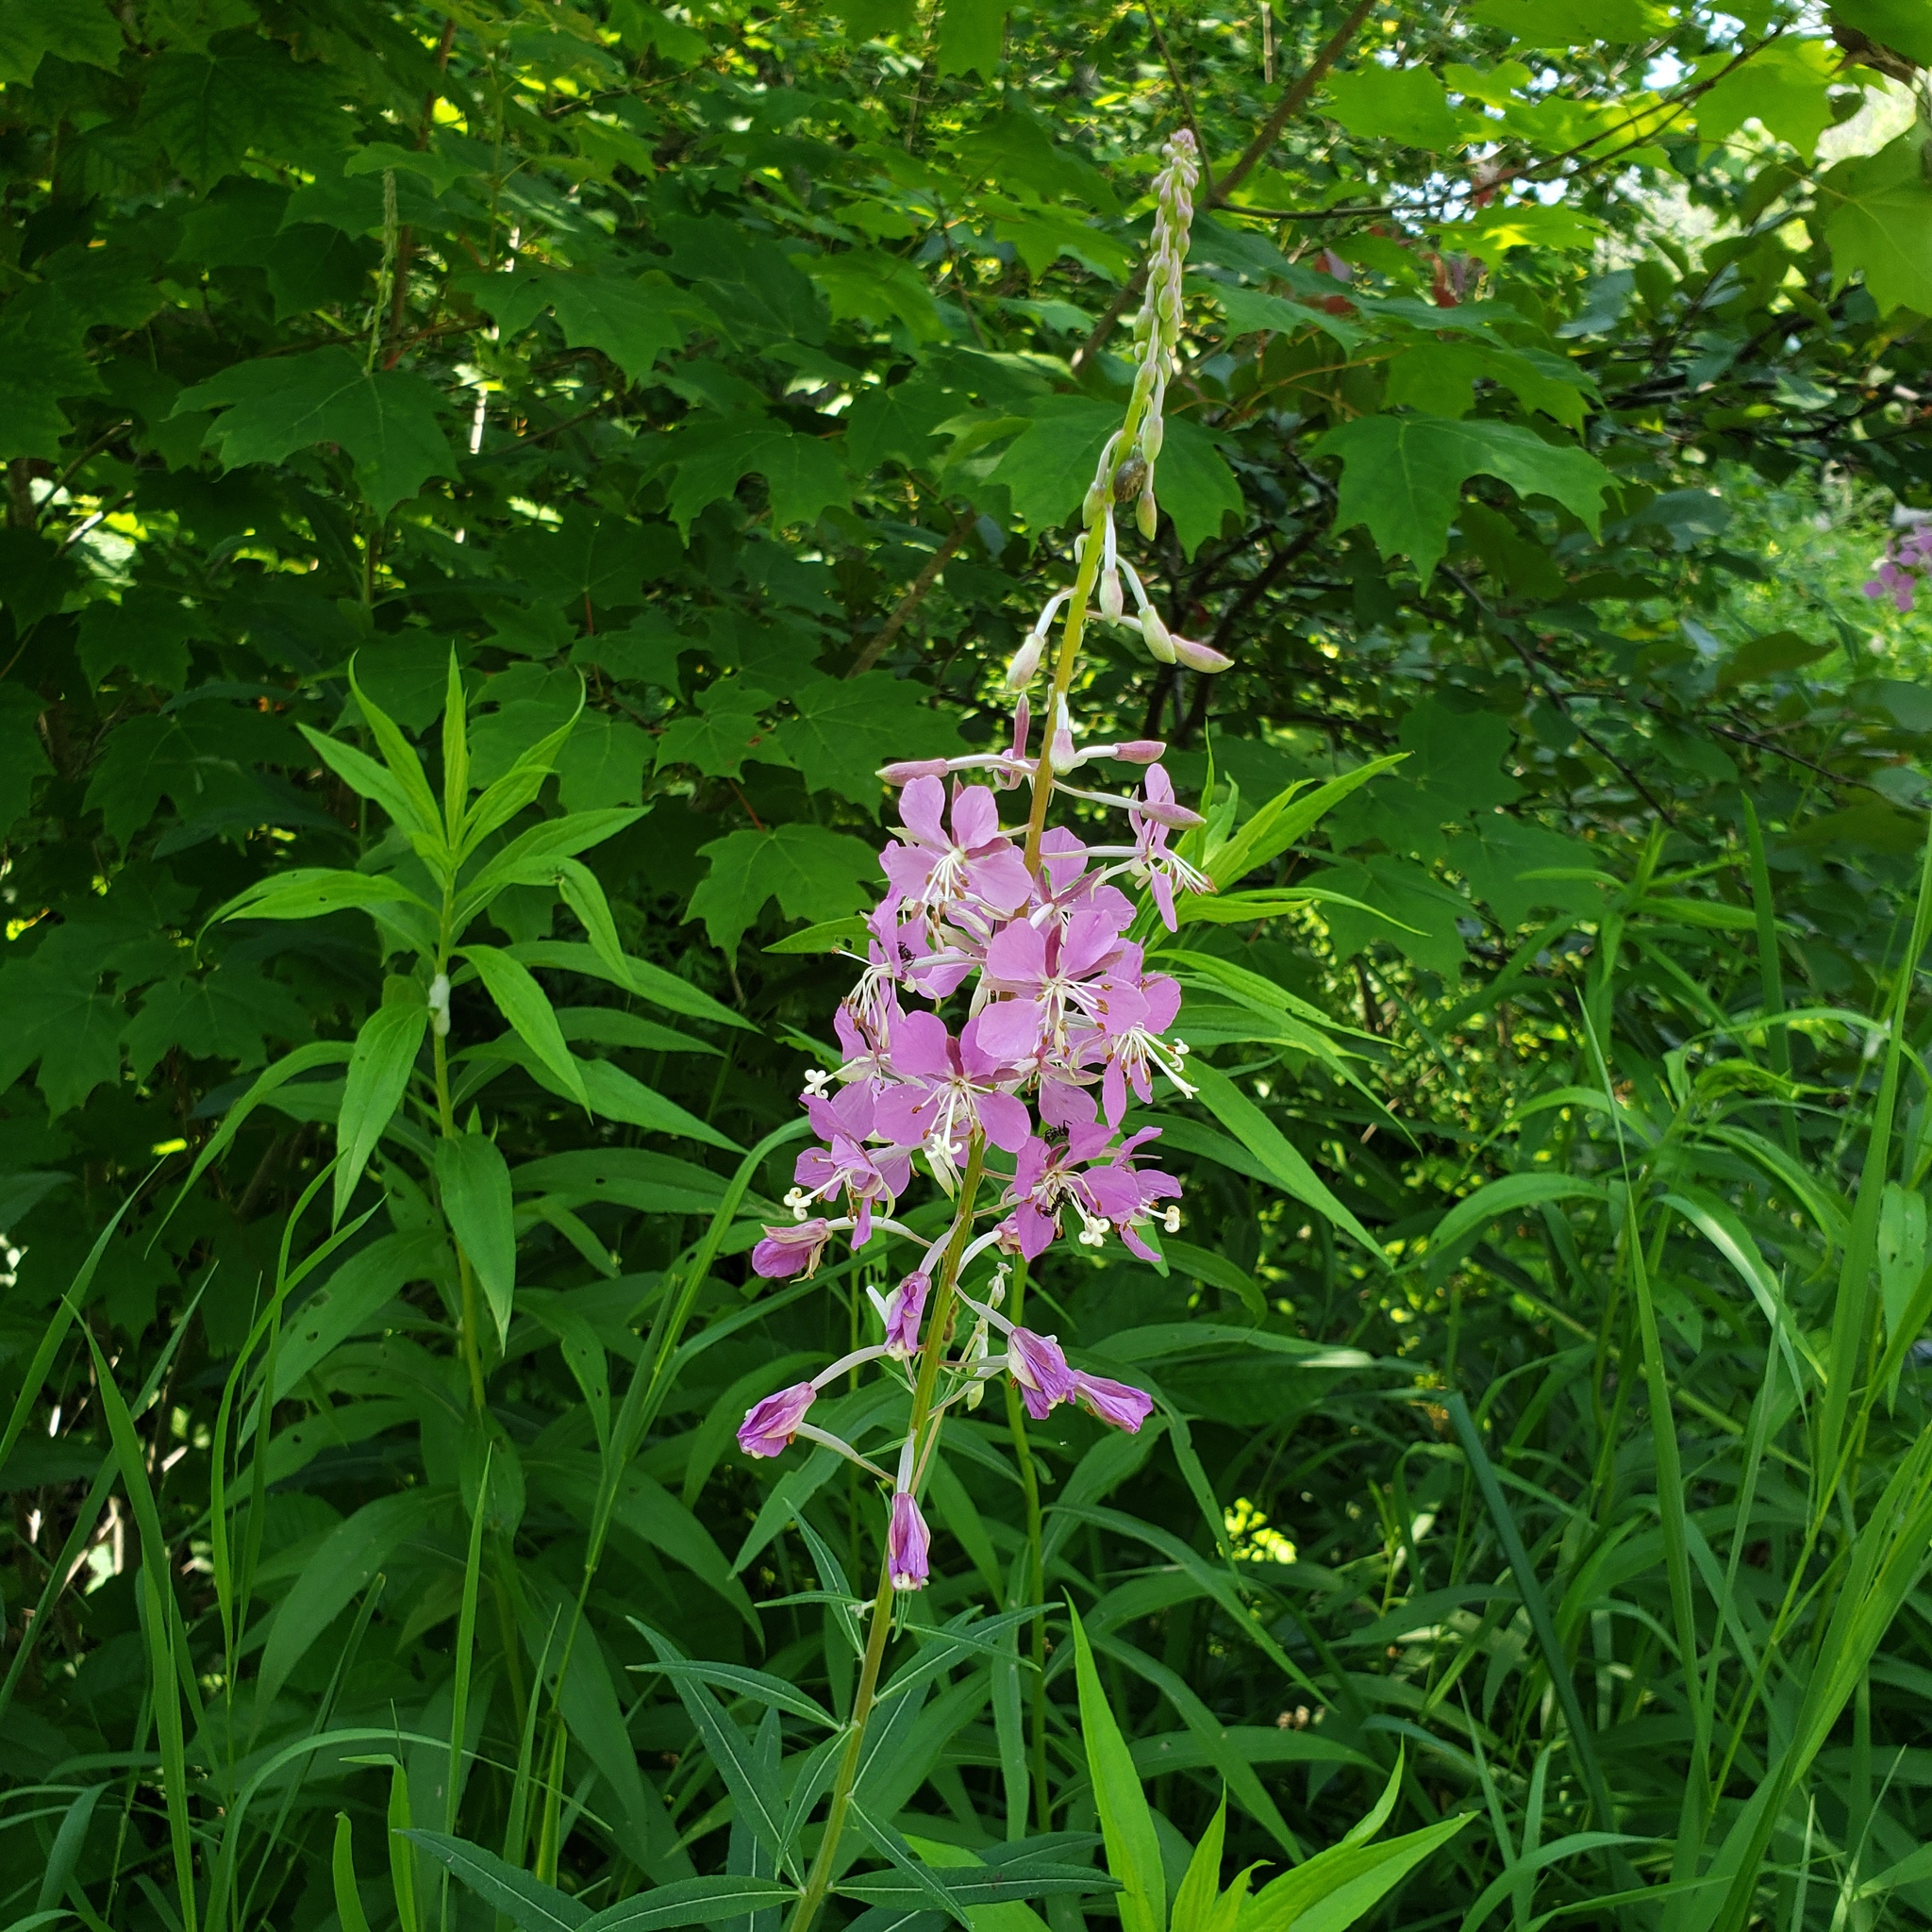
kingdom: Plantae
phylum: Tracheophyta
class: Magnoliopsida
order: Myrtales
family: Onagraceae
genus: Chamaenerion
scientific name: Chamaenerion angustifolium
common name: Fireweed
